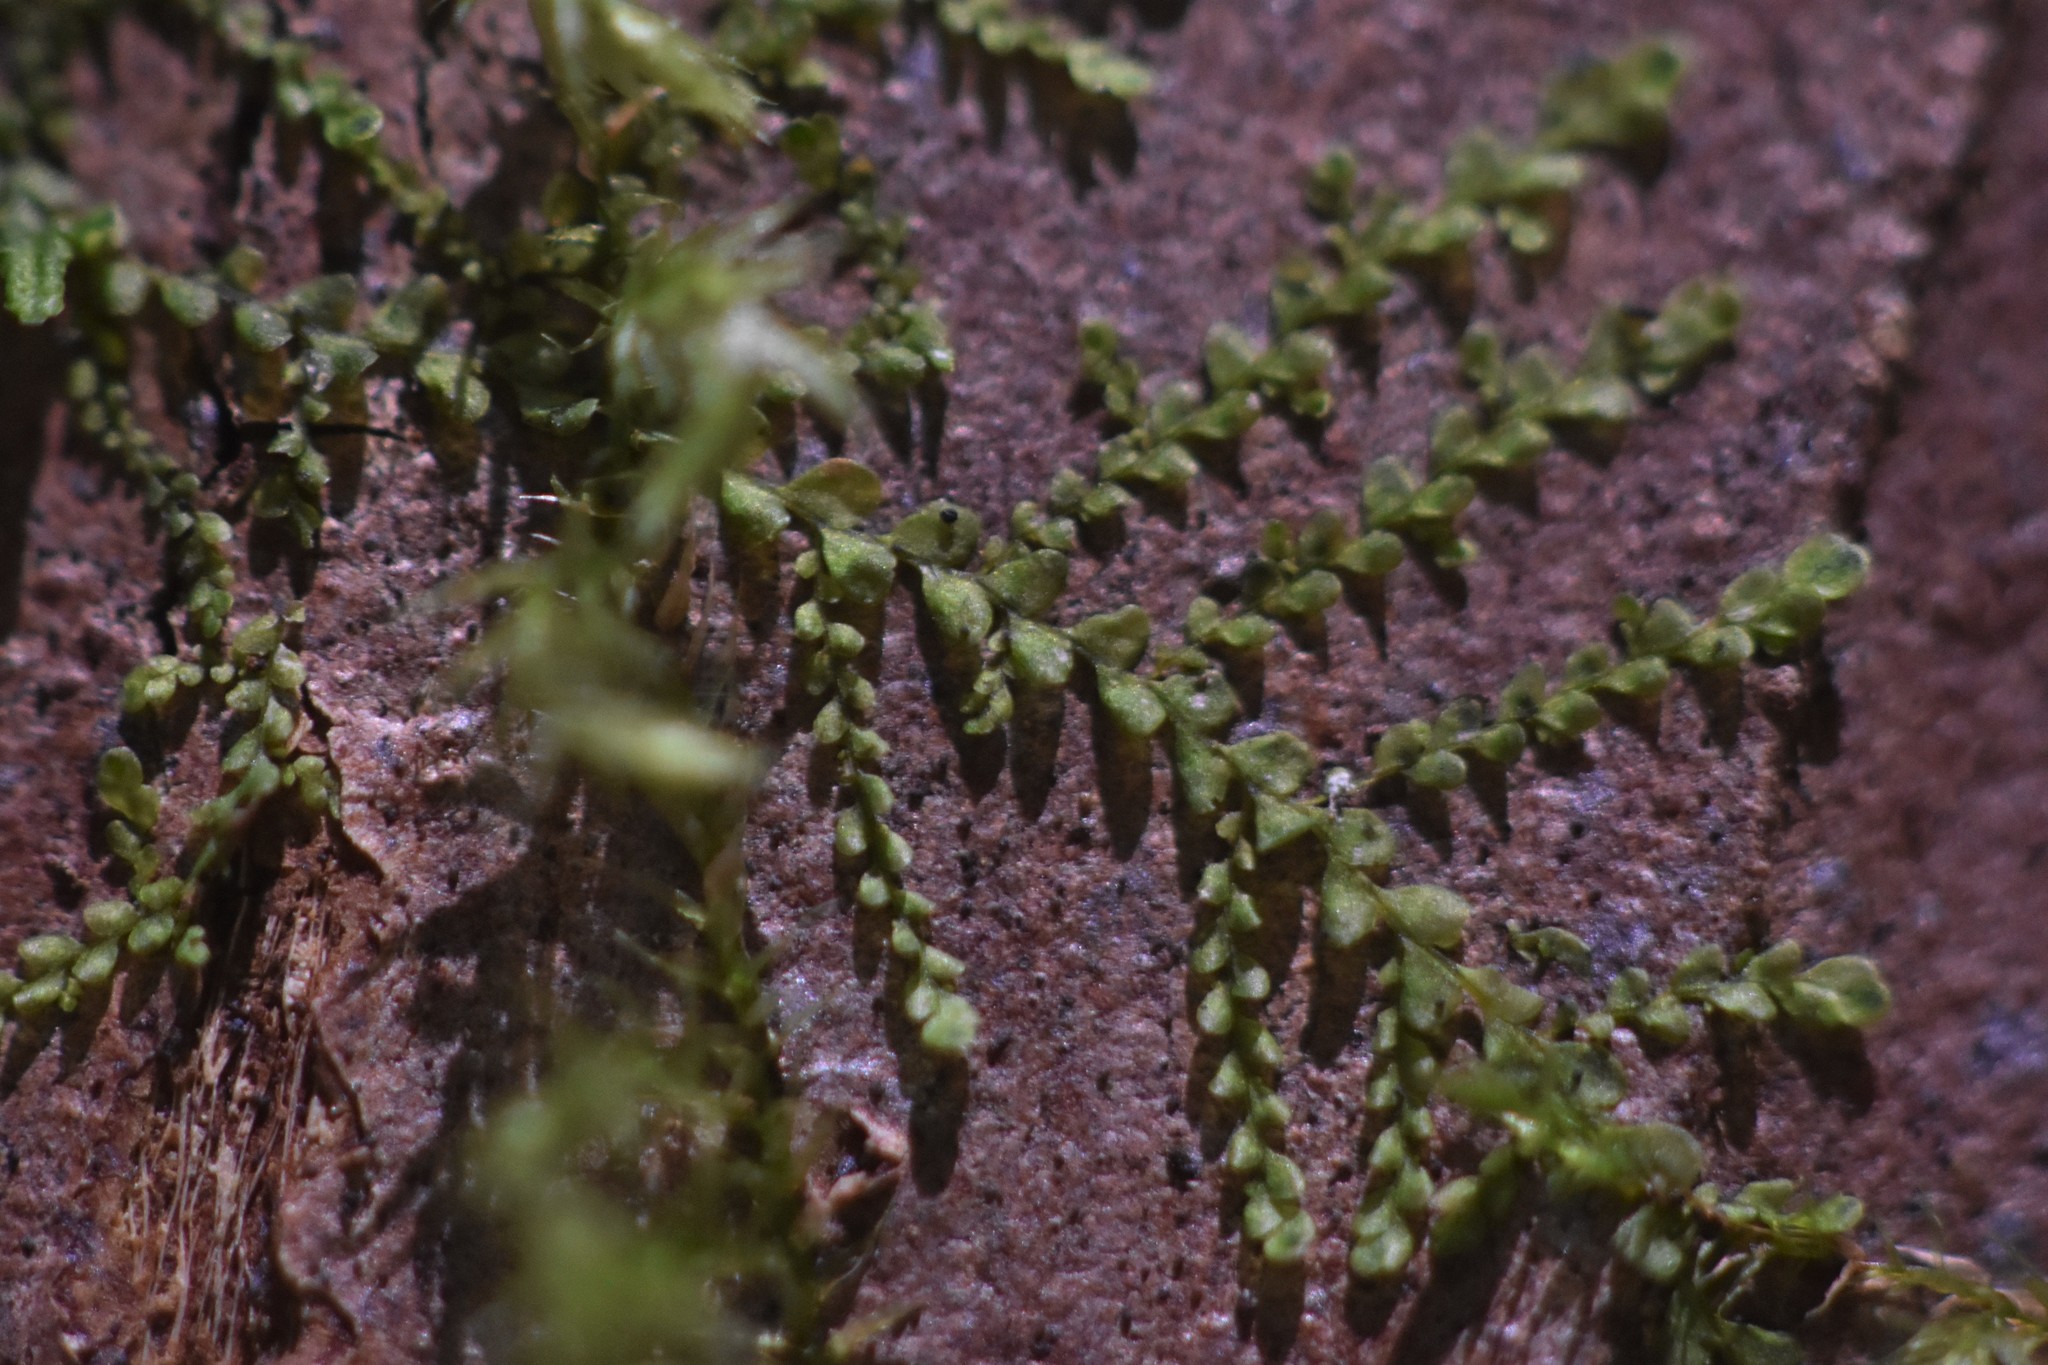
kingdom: Plantae
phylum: Marchantiophyta
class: Jungermanniopsida
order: Porellales
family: Radulaceae
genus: Radula
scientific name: Radula bolanderi
